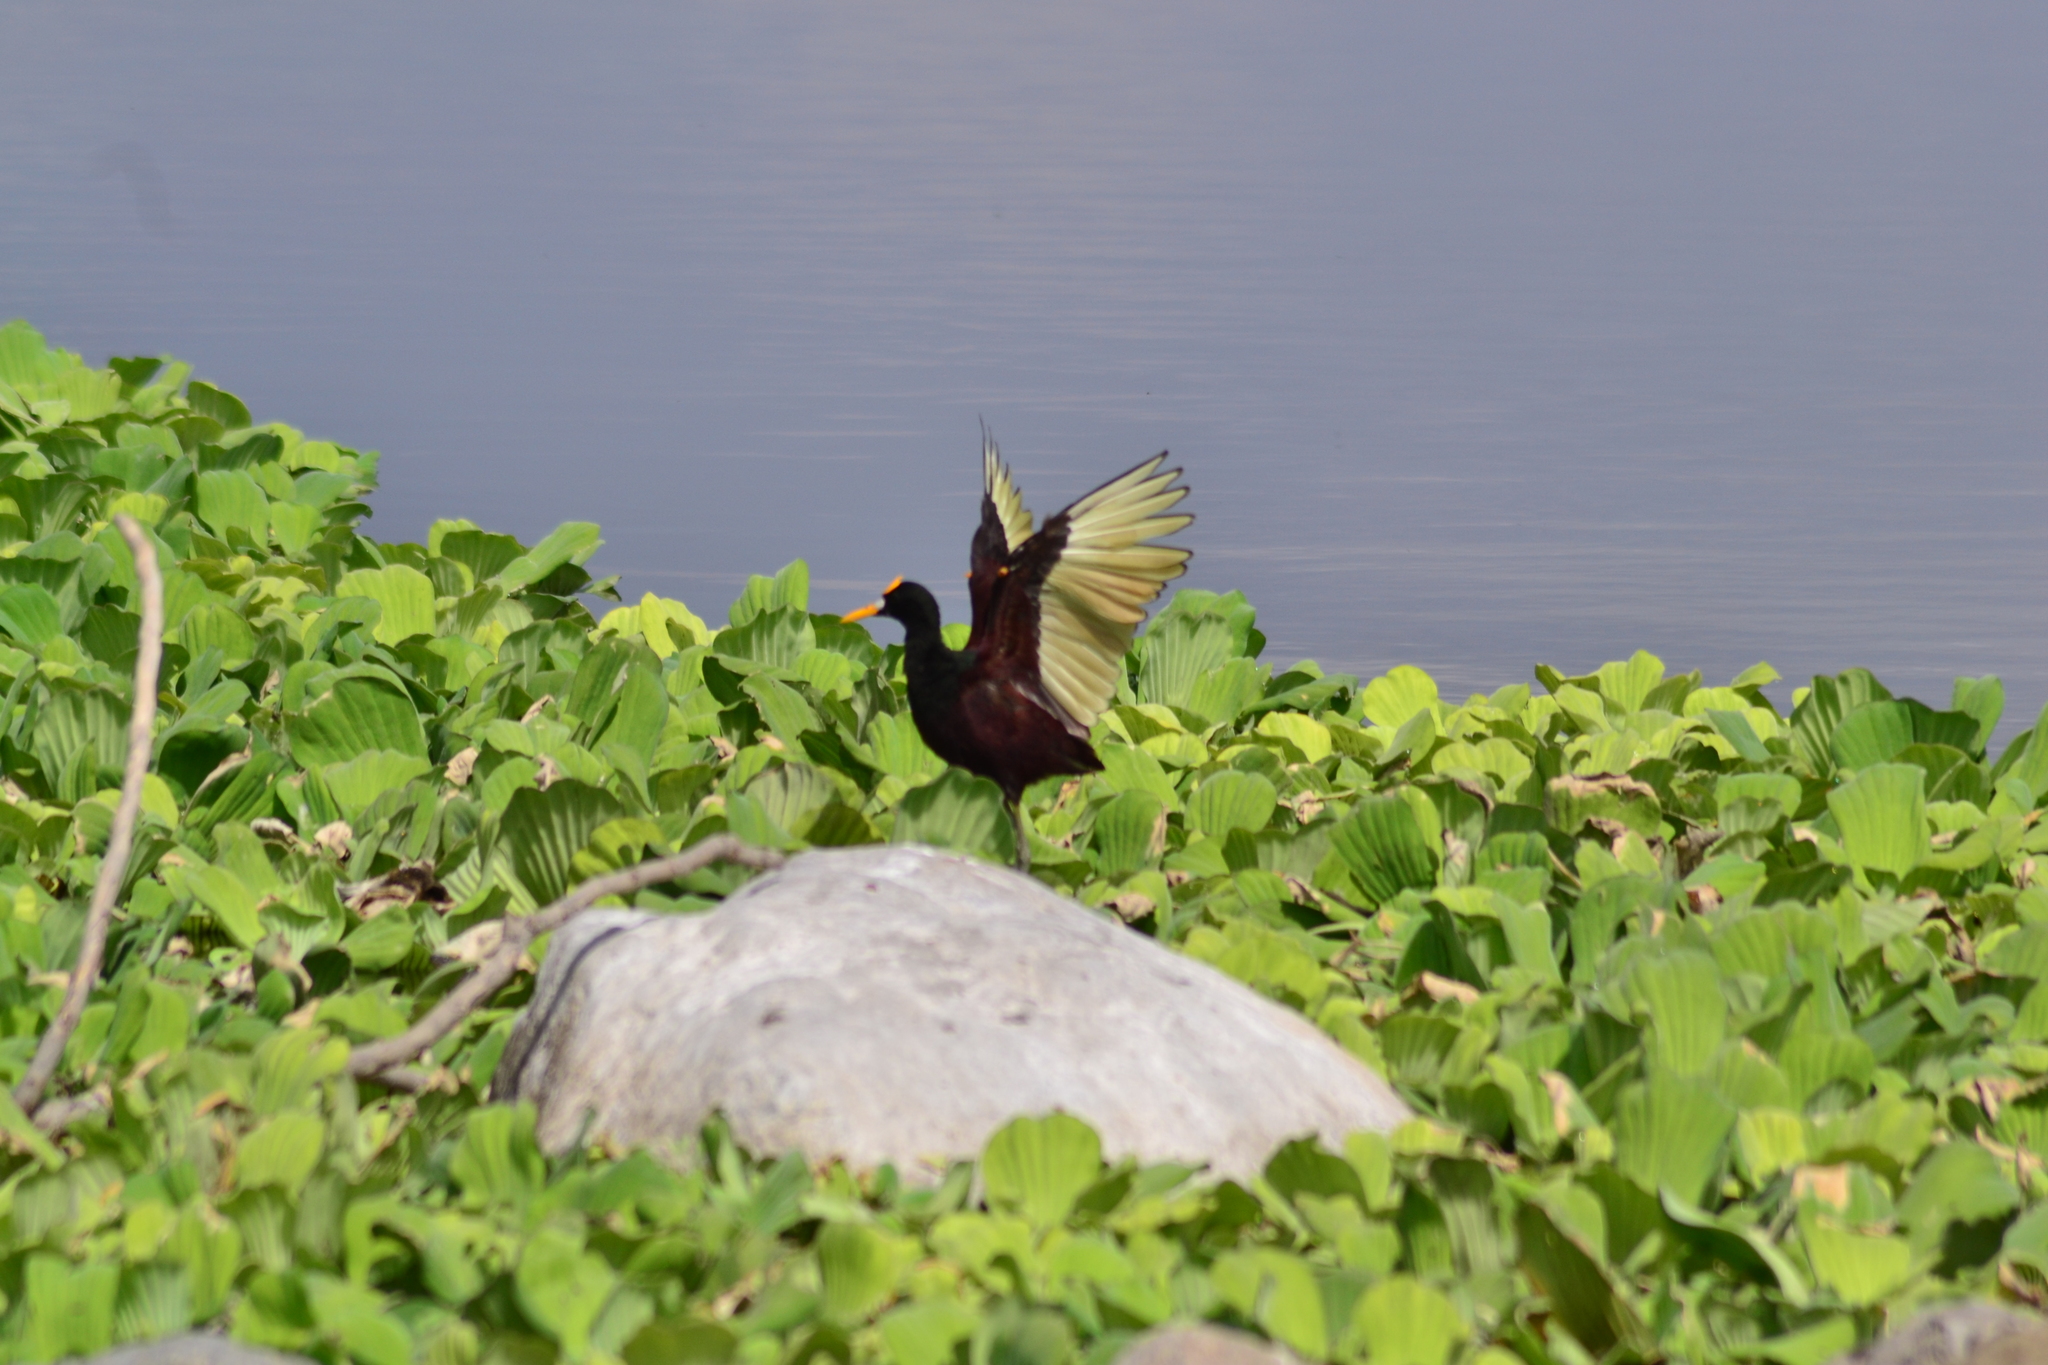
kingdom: Animalia
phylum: Chordata
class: Aves
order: Charadriiformes
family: Jacanidae
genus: Jacana
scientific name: Jacana spinosa
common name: Northern jacana
